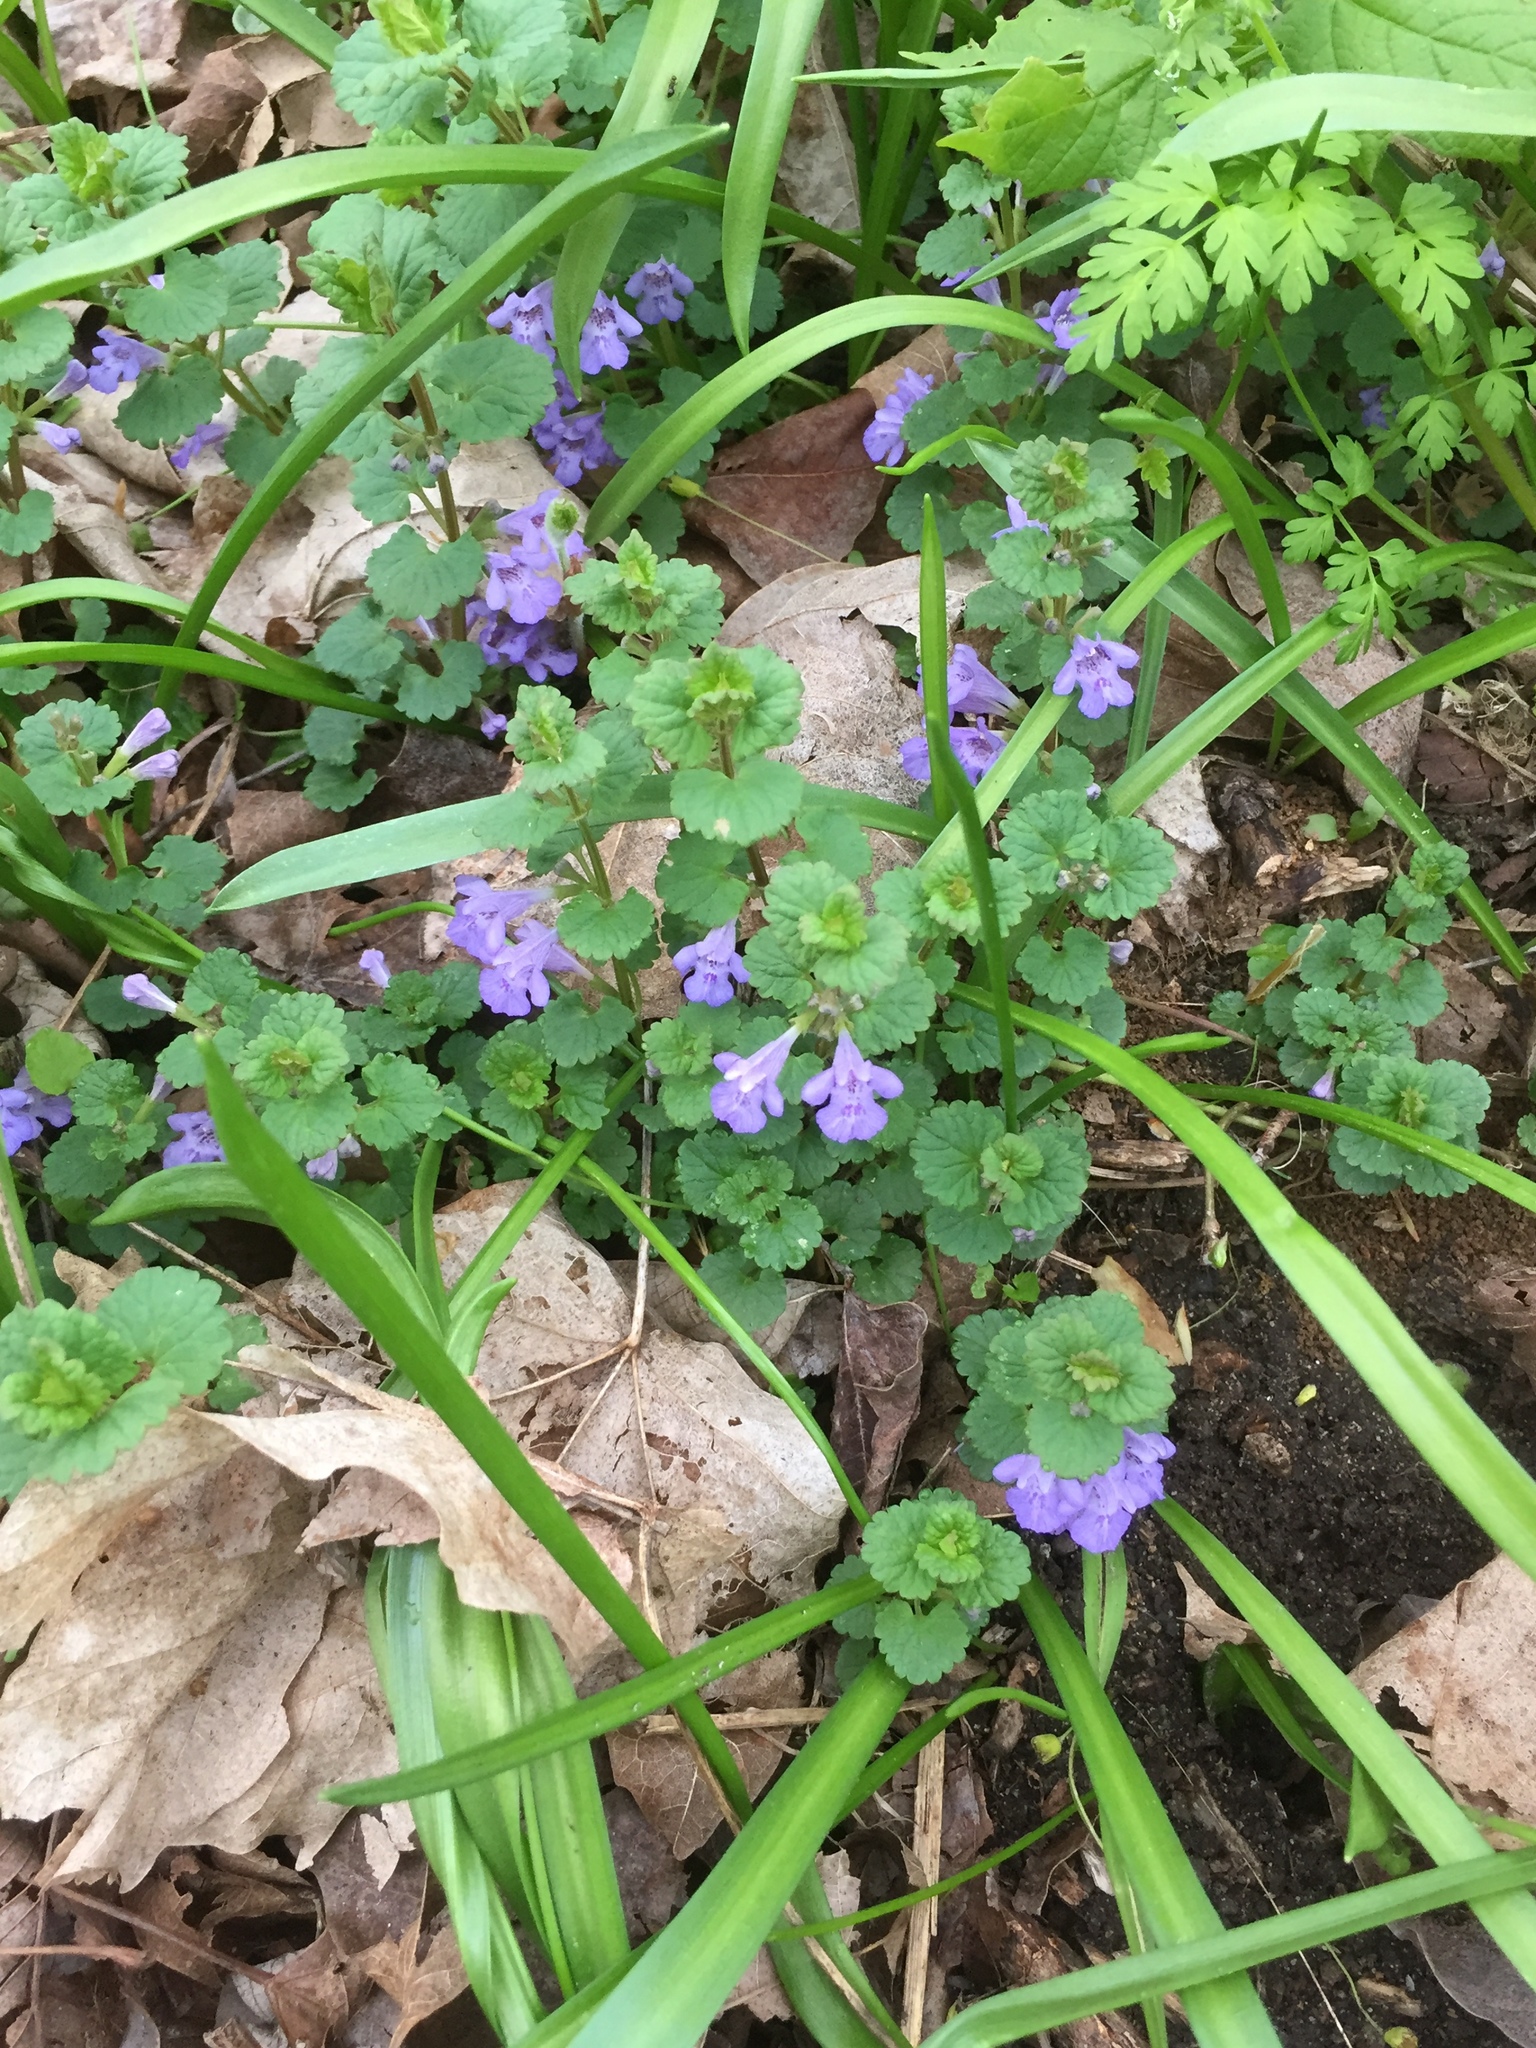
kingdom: Plantae
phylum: Tracheophyta
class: Magnoliopsida
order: Lamiales
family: Lamiaceae
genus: Glechoma
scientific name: Glechoma hederacea
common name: Ground ivy
